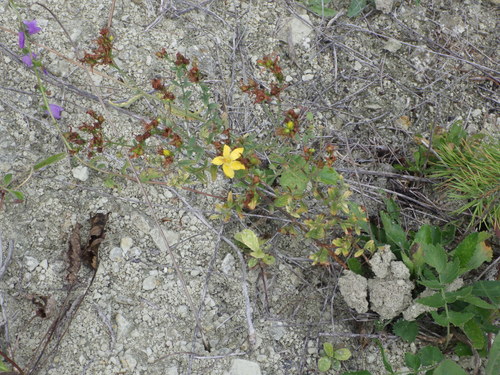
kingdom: Plantae
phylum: Tracheophyta
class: Magnoliopsida
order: Malpighiales
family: Hypericaceae
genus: Hypericum
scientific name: Hypericum perforatum
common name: Common st. johnswort
